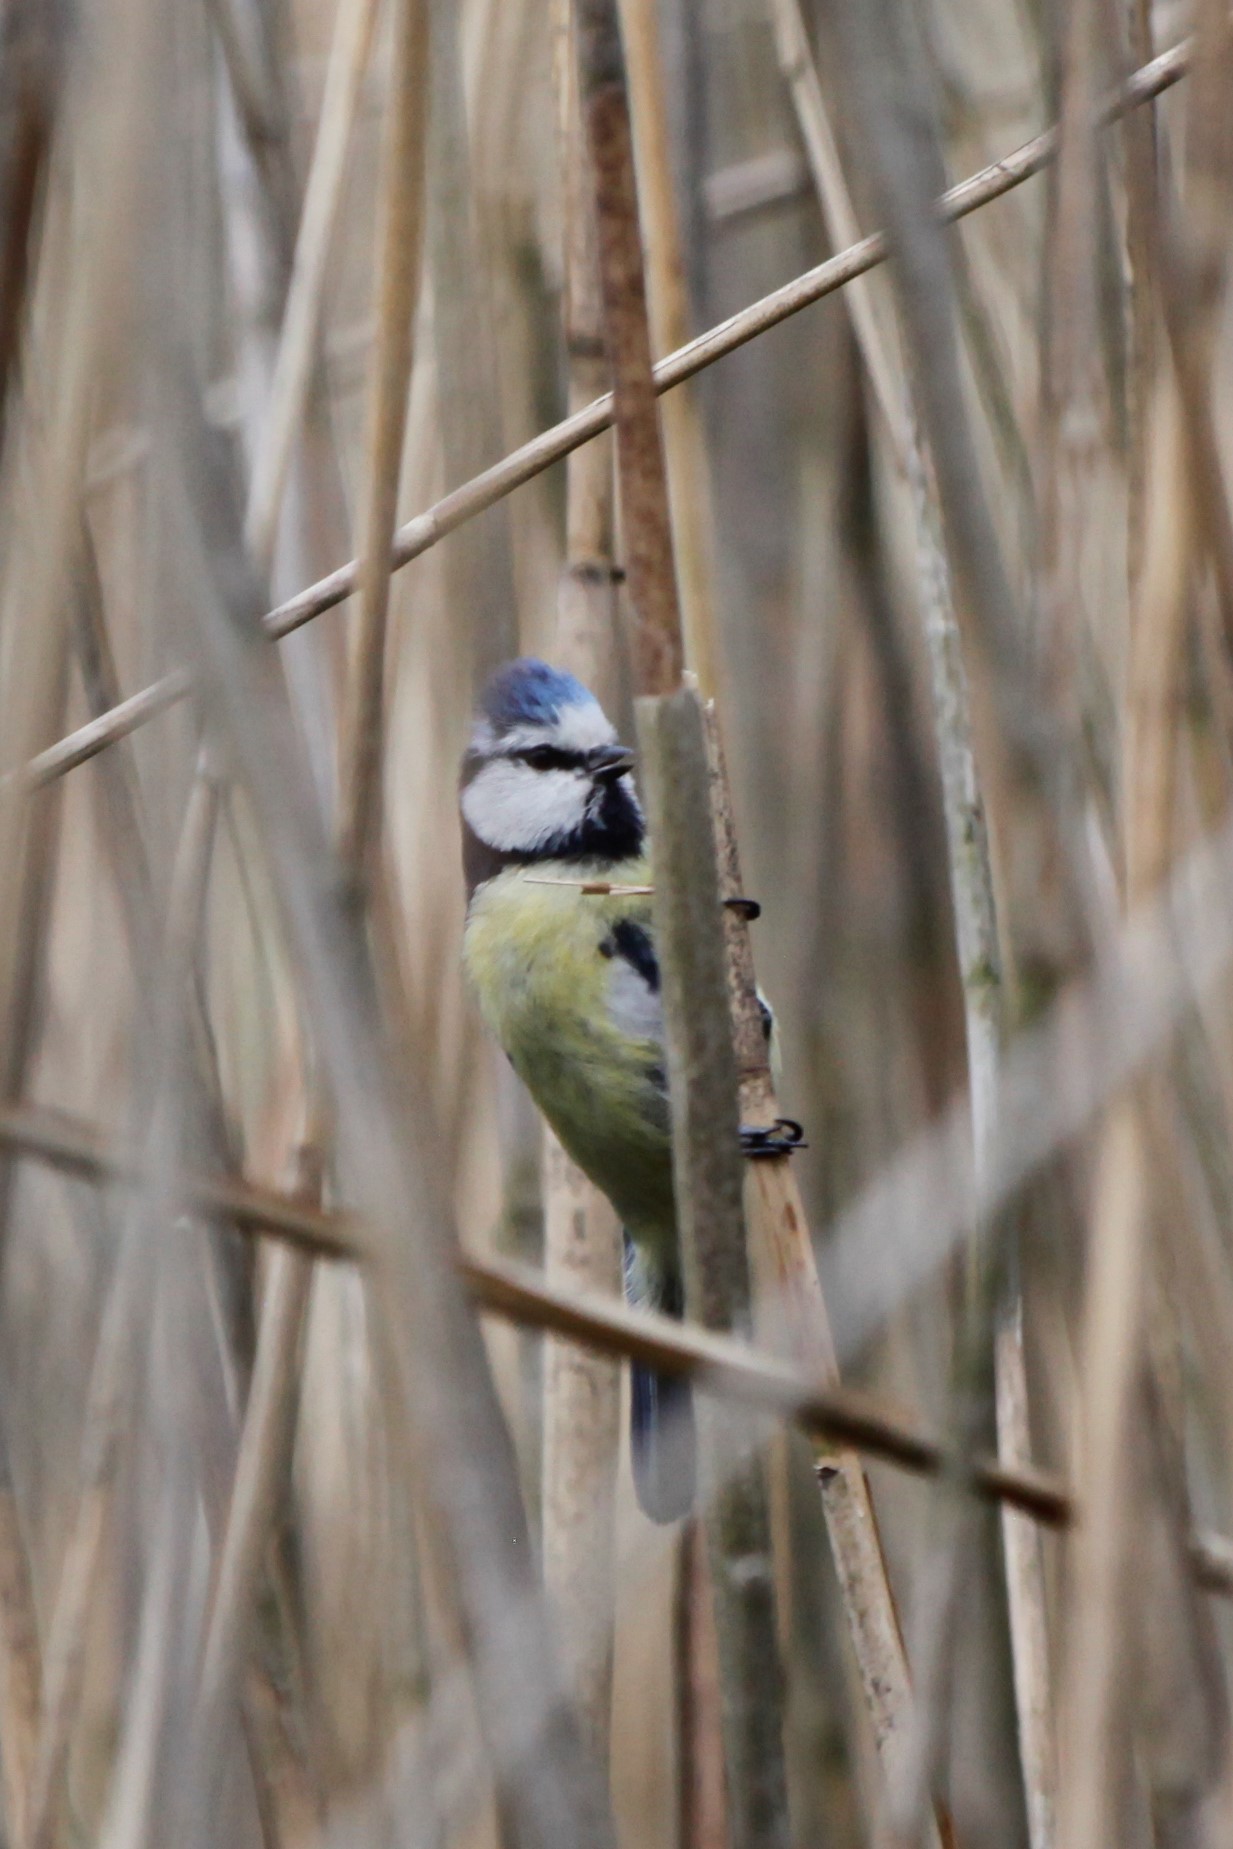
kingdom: Animalia
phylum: Chordata
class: Aves
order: Passeriformes
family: Paridae
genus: Cyanistes
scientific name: Cyanistes caeruleus
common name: Eurasian blue tit
